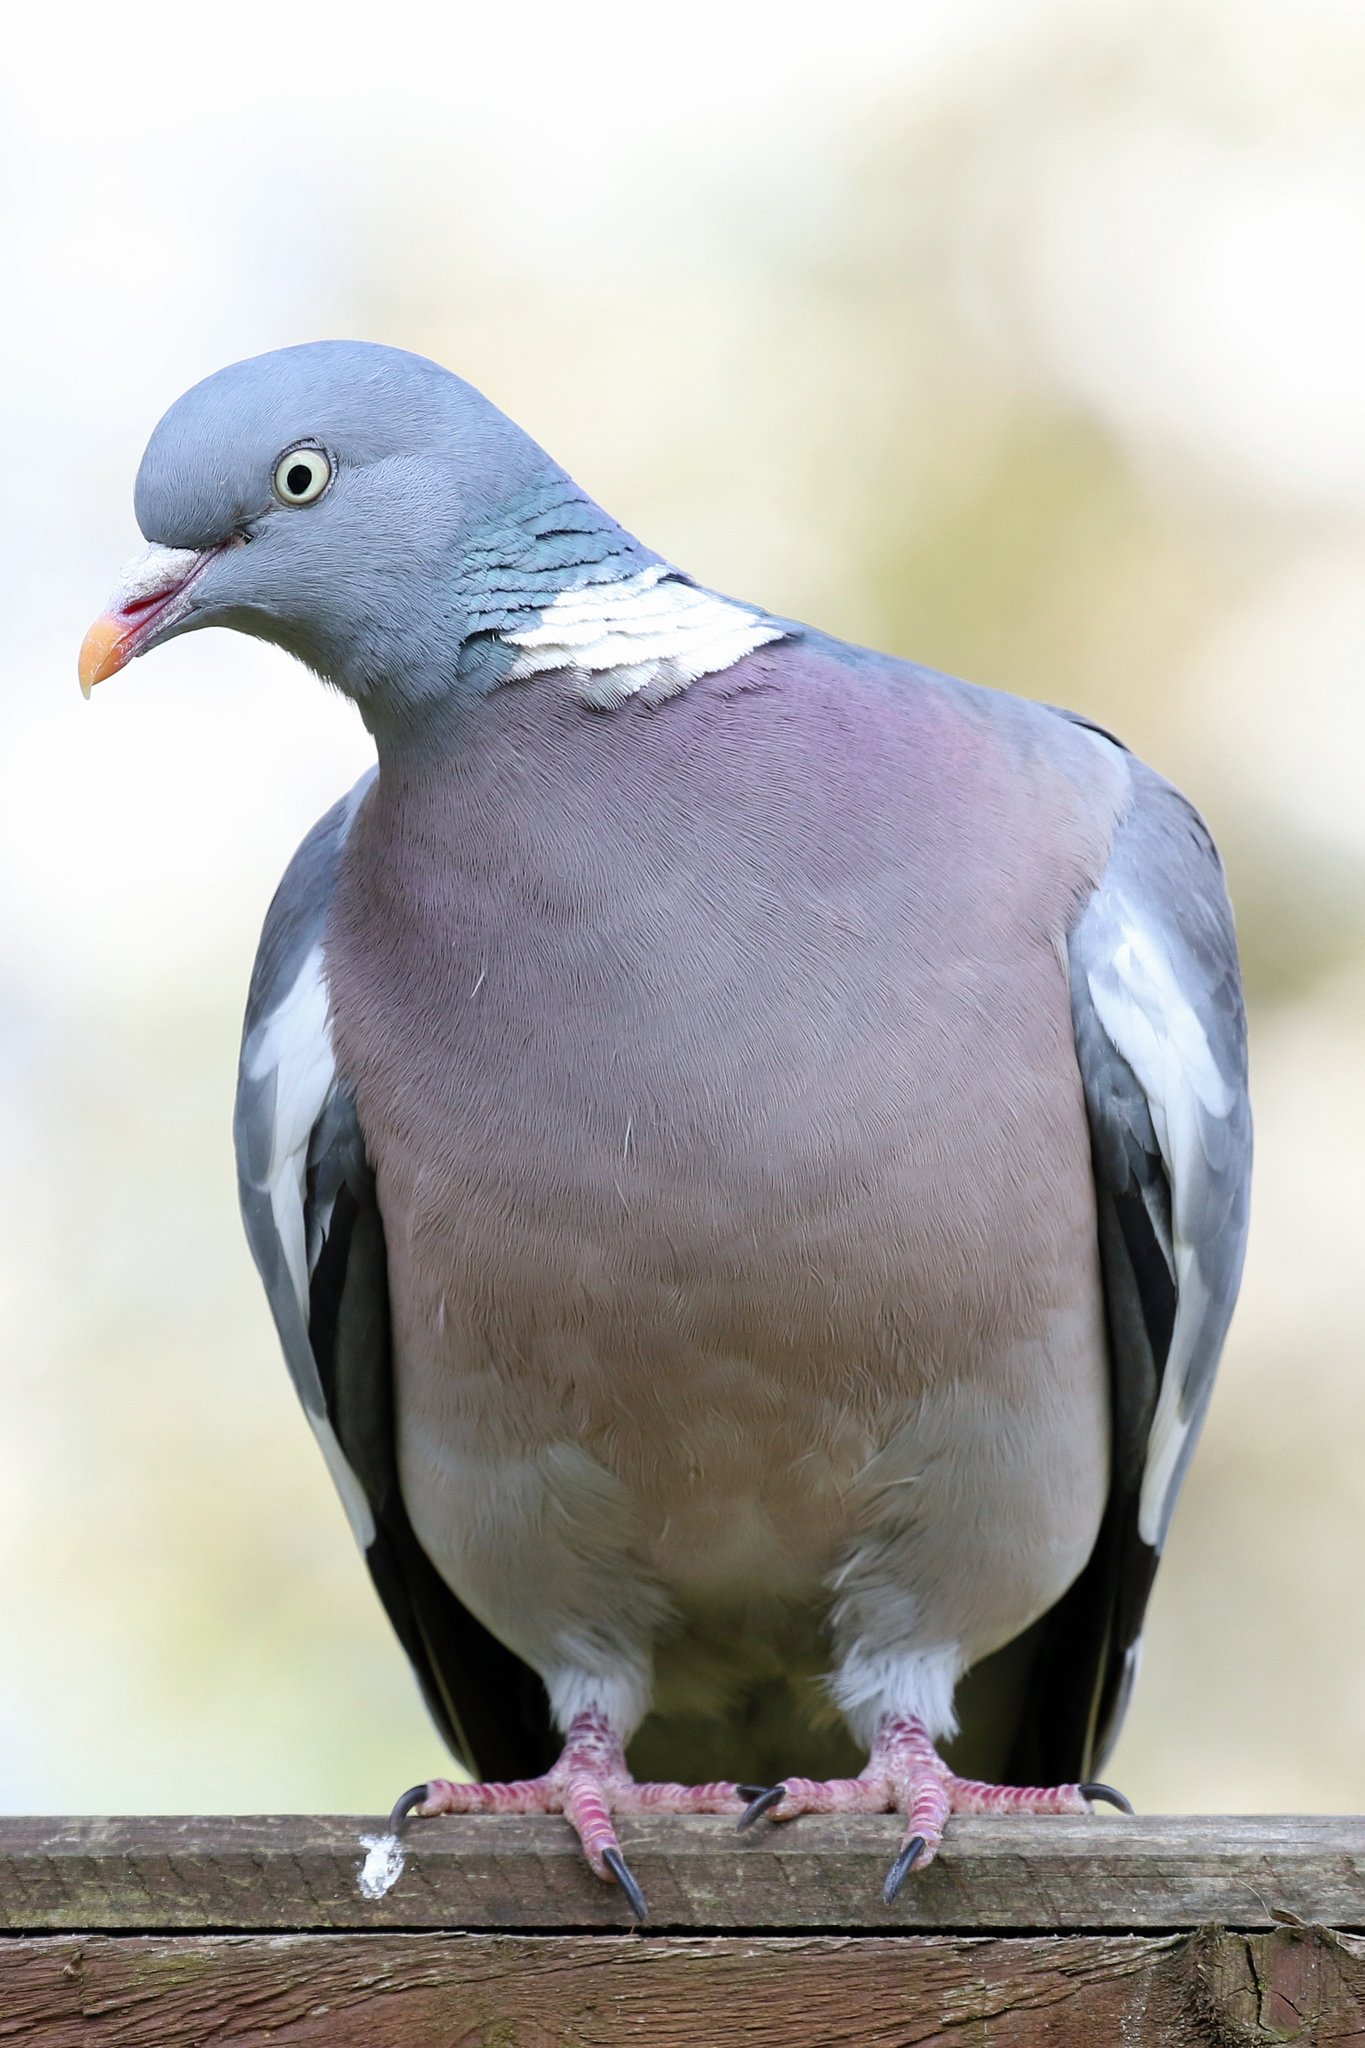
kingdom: Animalia
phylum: Chordata
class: Aves
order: Columbiformes
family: Columbidae
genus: Columba
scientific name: Columba palumbus
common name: Common wood pigeon
